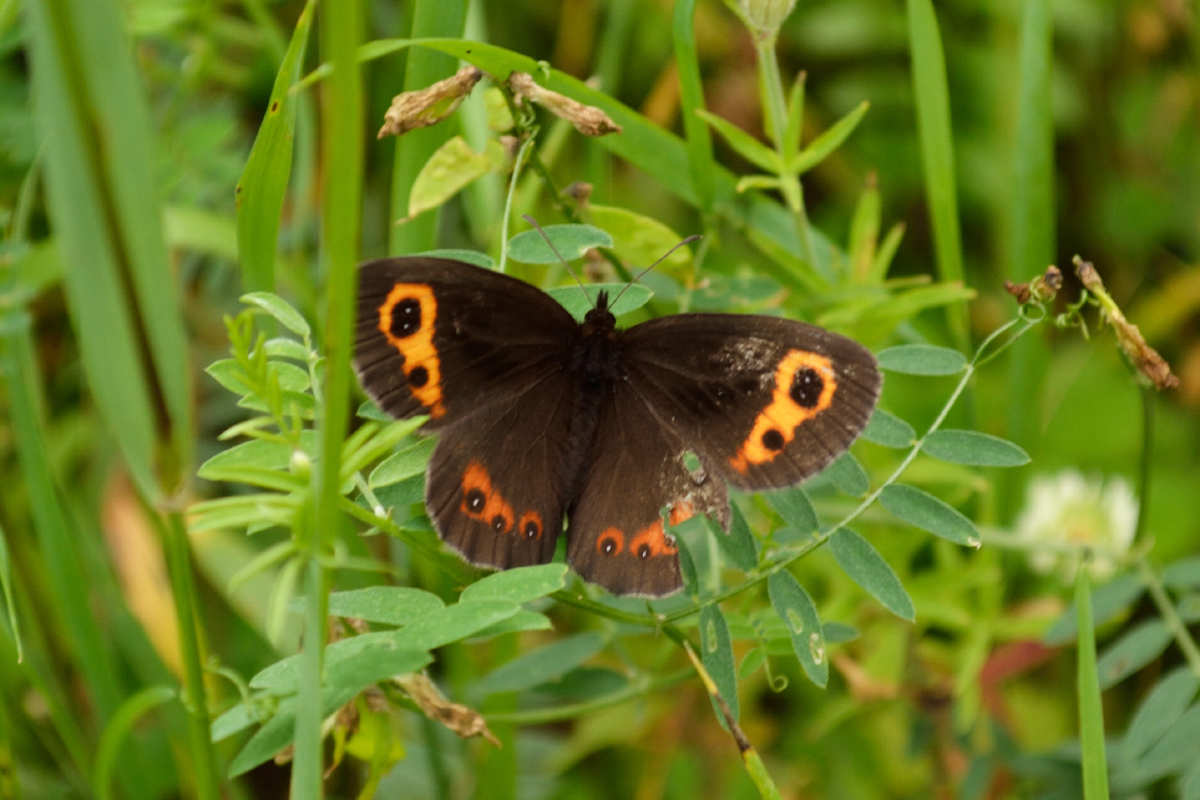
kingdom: Animalia
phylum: Arthropoda
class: Insecta
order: Lepidoptera
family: Nymphalidae
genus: Erebia
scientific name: Erebia neriene
